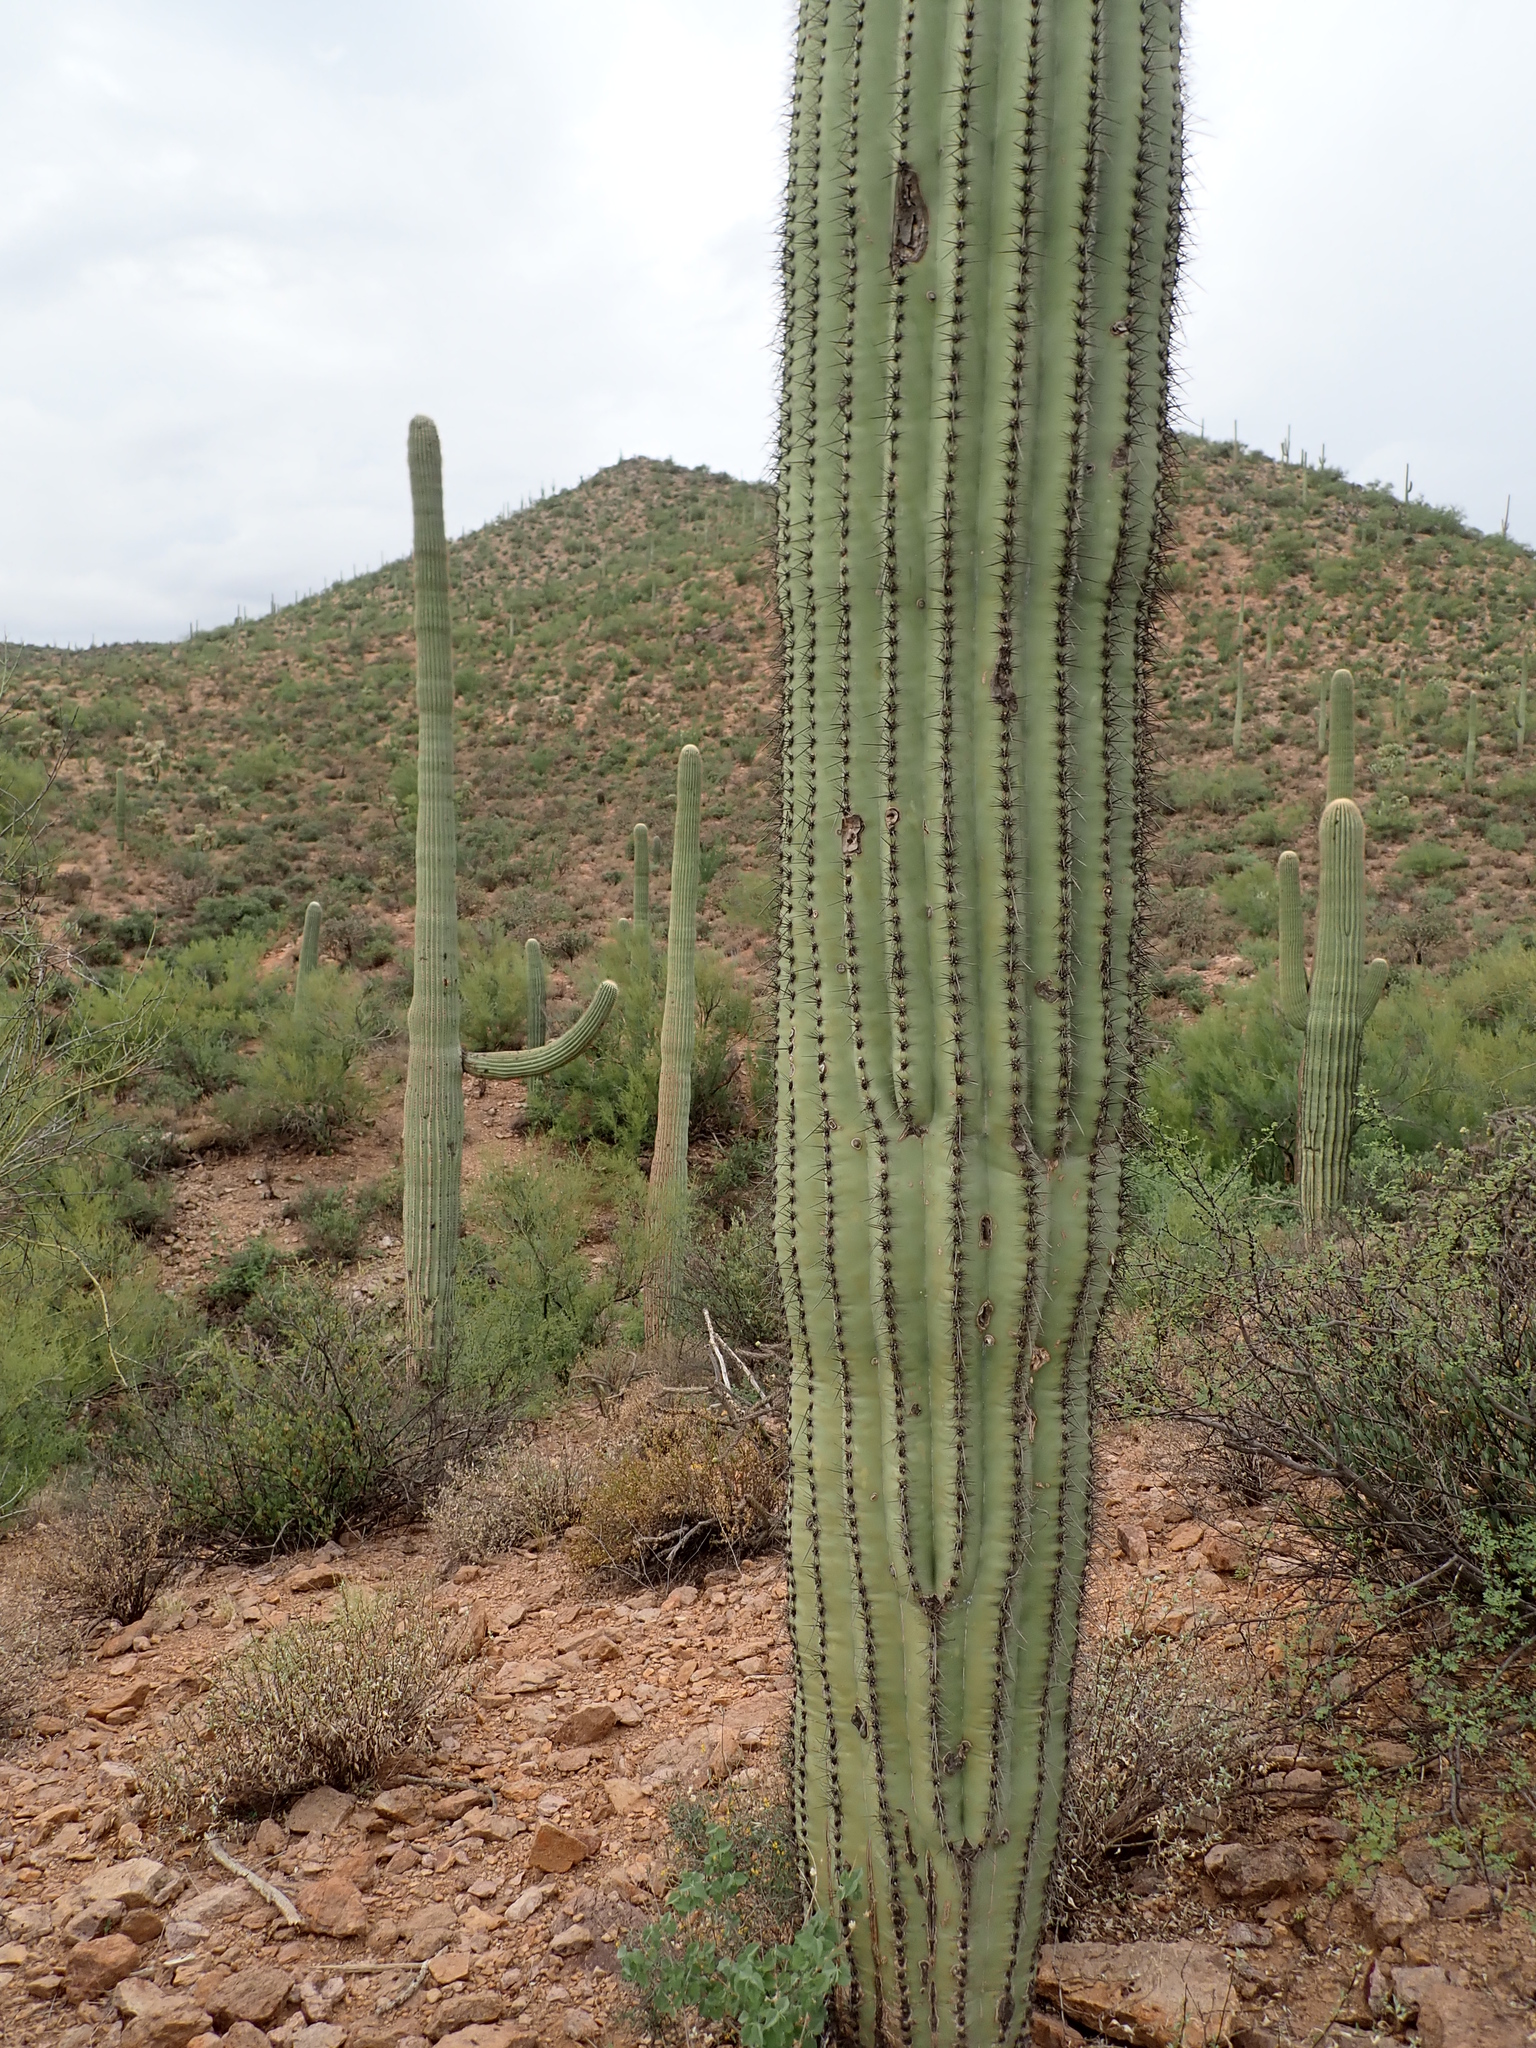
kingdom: Plantae
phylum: Tracheophyta
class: Magnoliopsida
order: Caryophyllales
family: Cactaceae
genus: Carnegiea
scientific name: Carnegiea gigantea
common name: Saguaro
